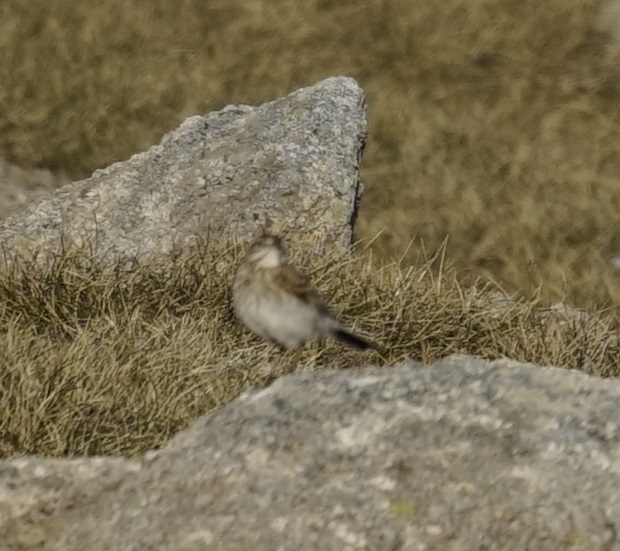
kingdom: Animalia
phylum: Chordata
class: Aves
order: Passeriformes
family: Motacillidae
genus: Anthus
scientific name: Anthus australis
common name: Australian pipit
